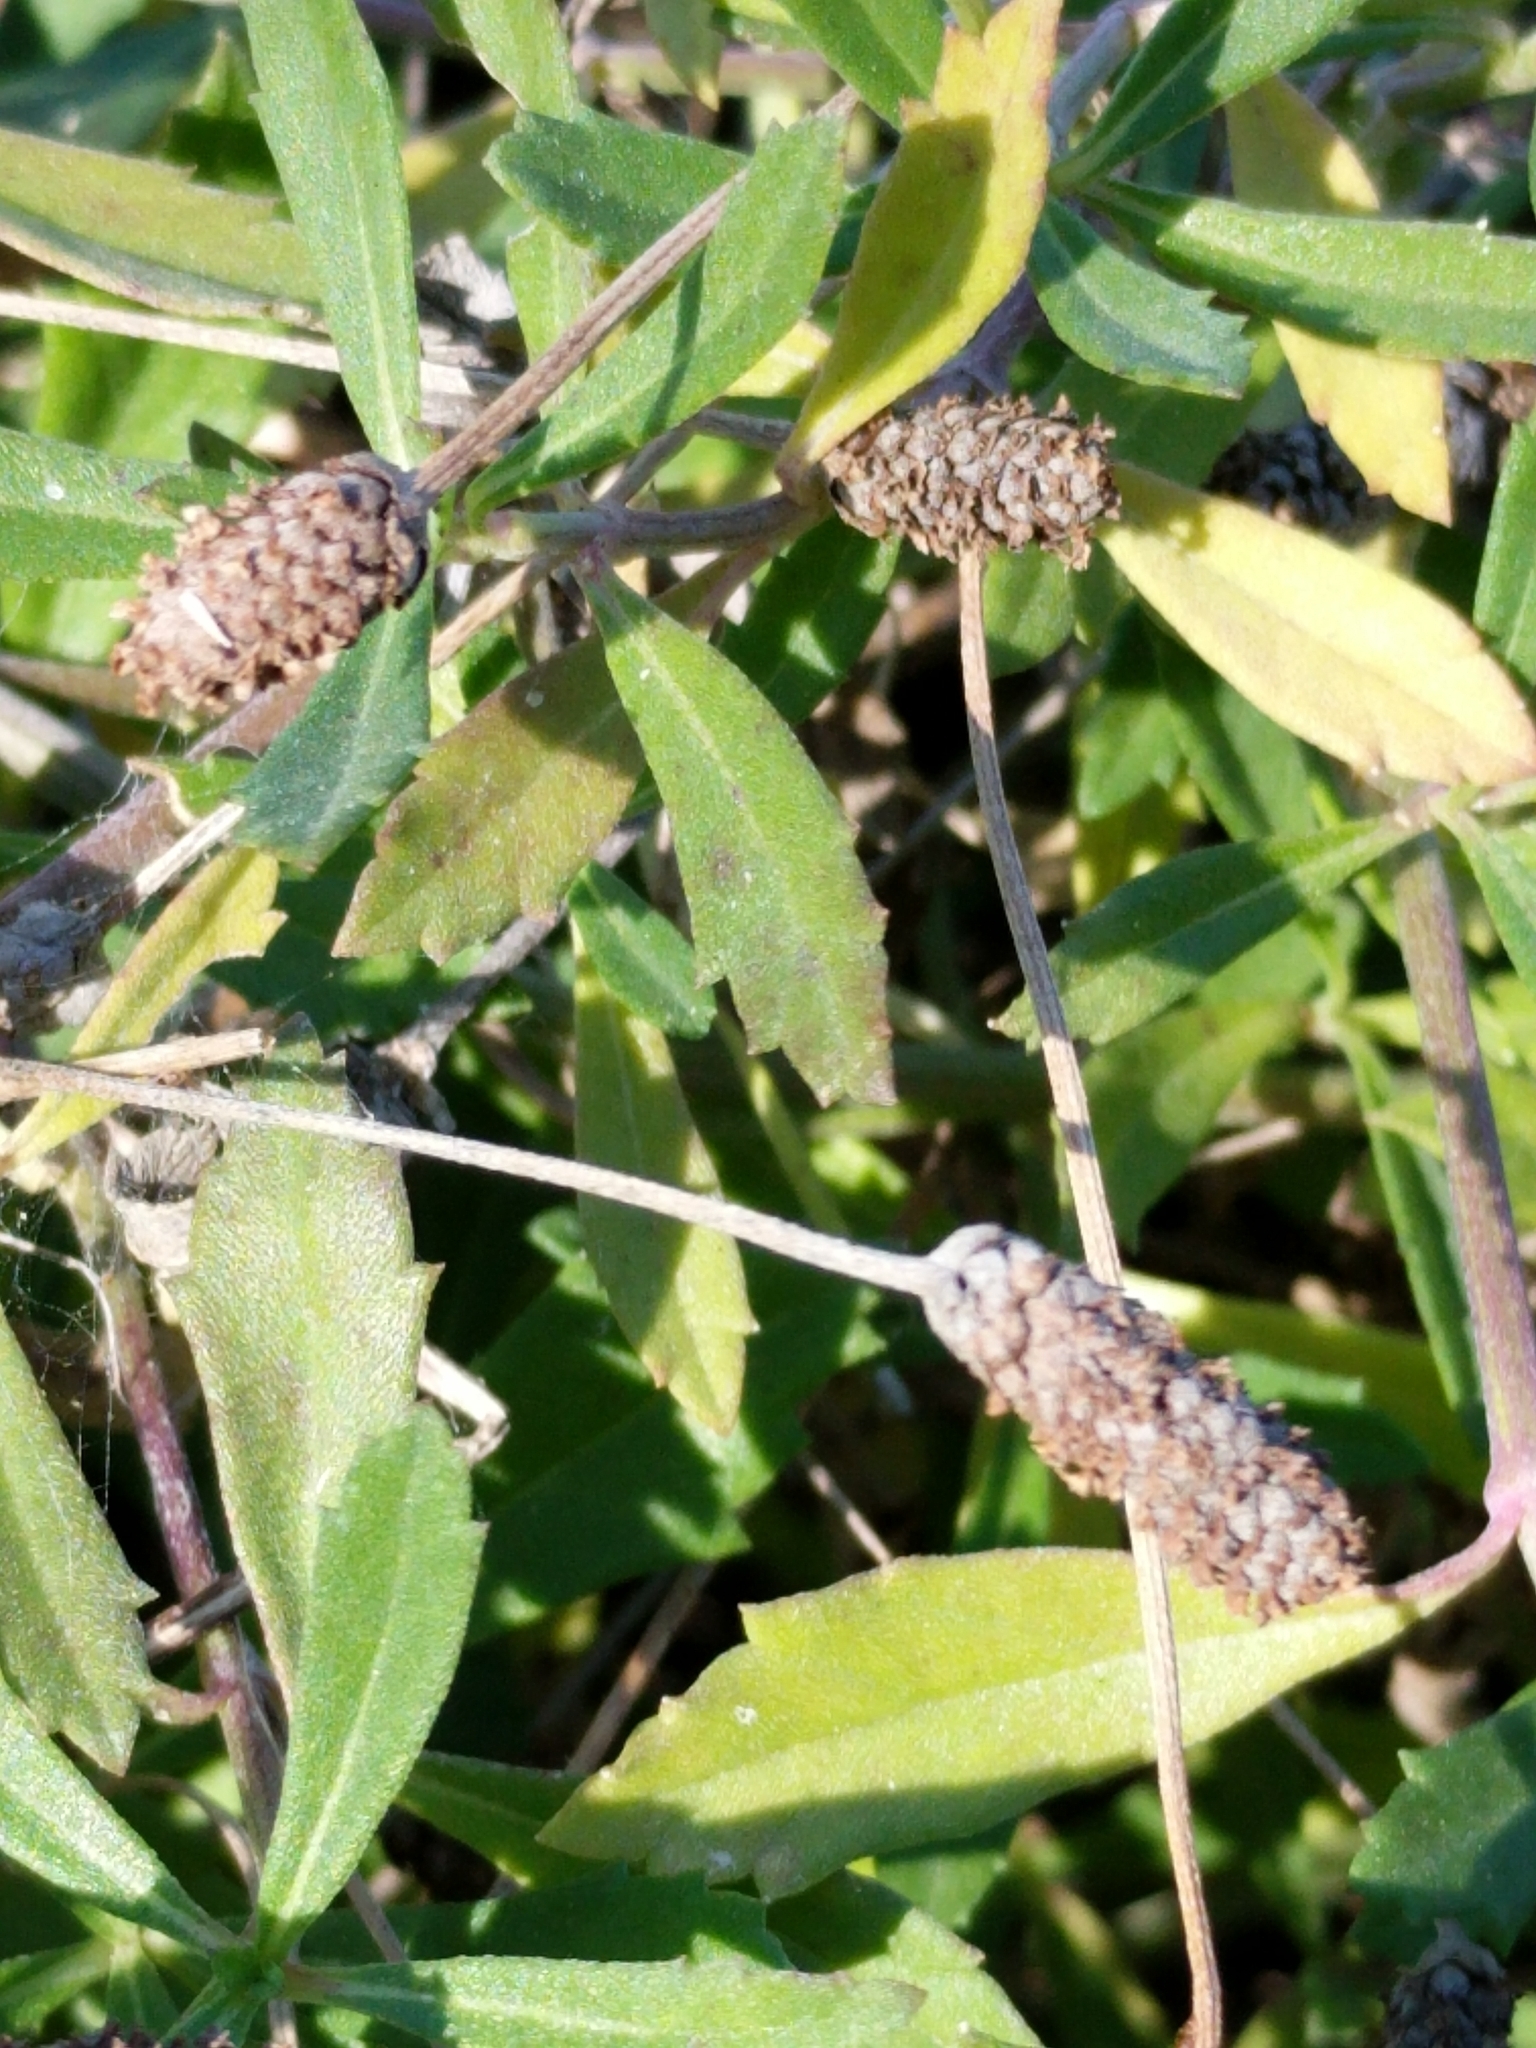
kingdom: Plantae
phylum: Tracheophyta
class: Magnoliopsida
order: Lamiales
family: Verbenaceae
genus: Phyla
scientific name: Phyla nodiflora
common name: Frogfruit
